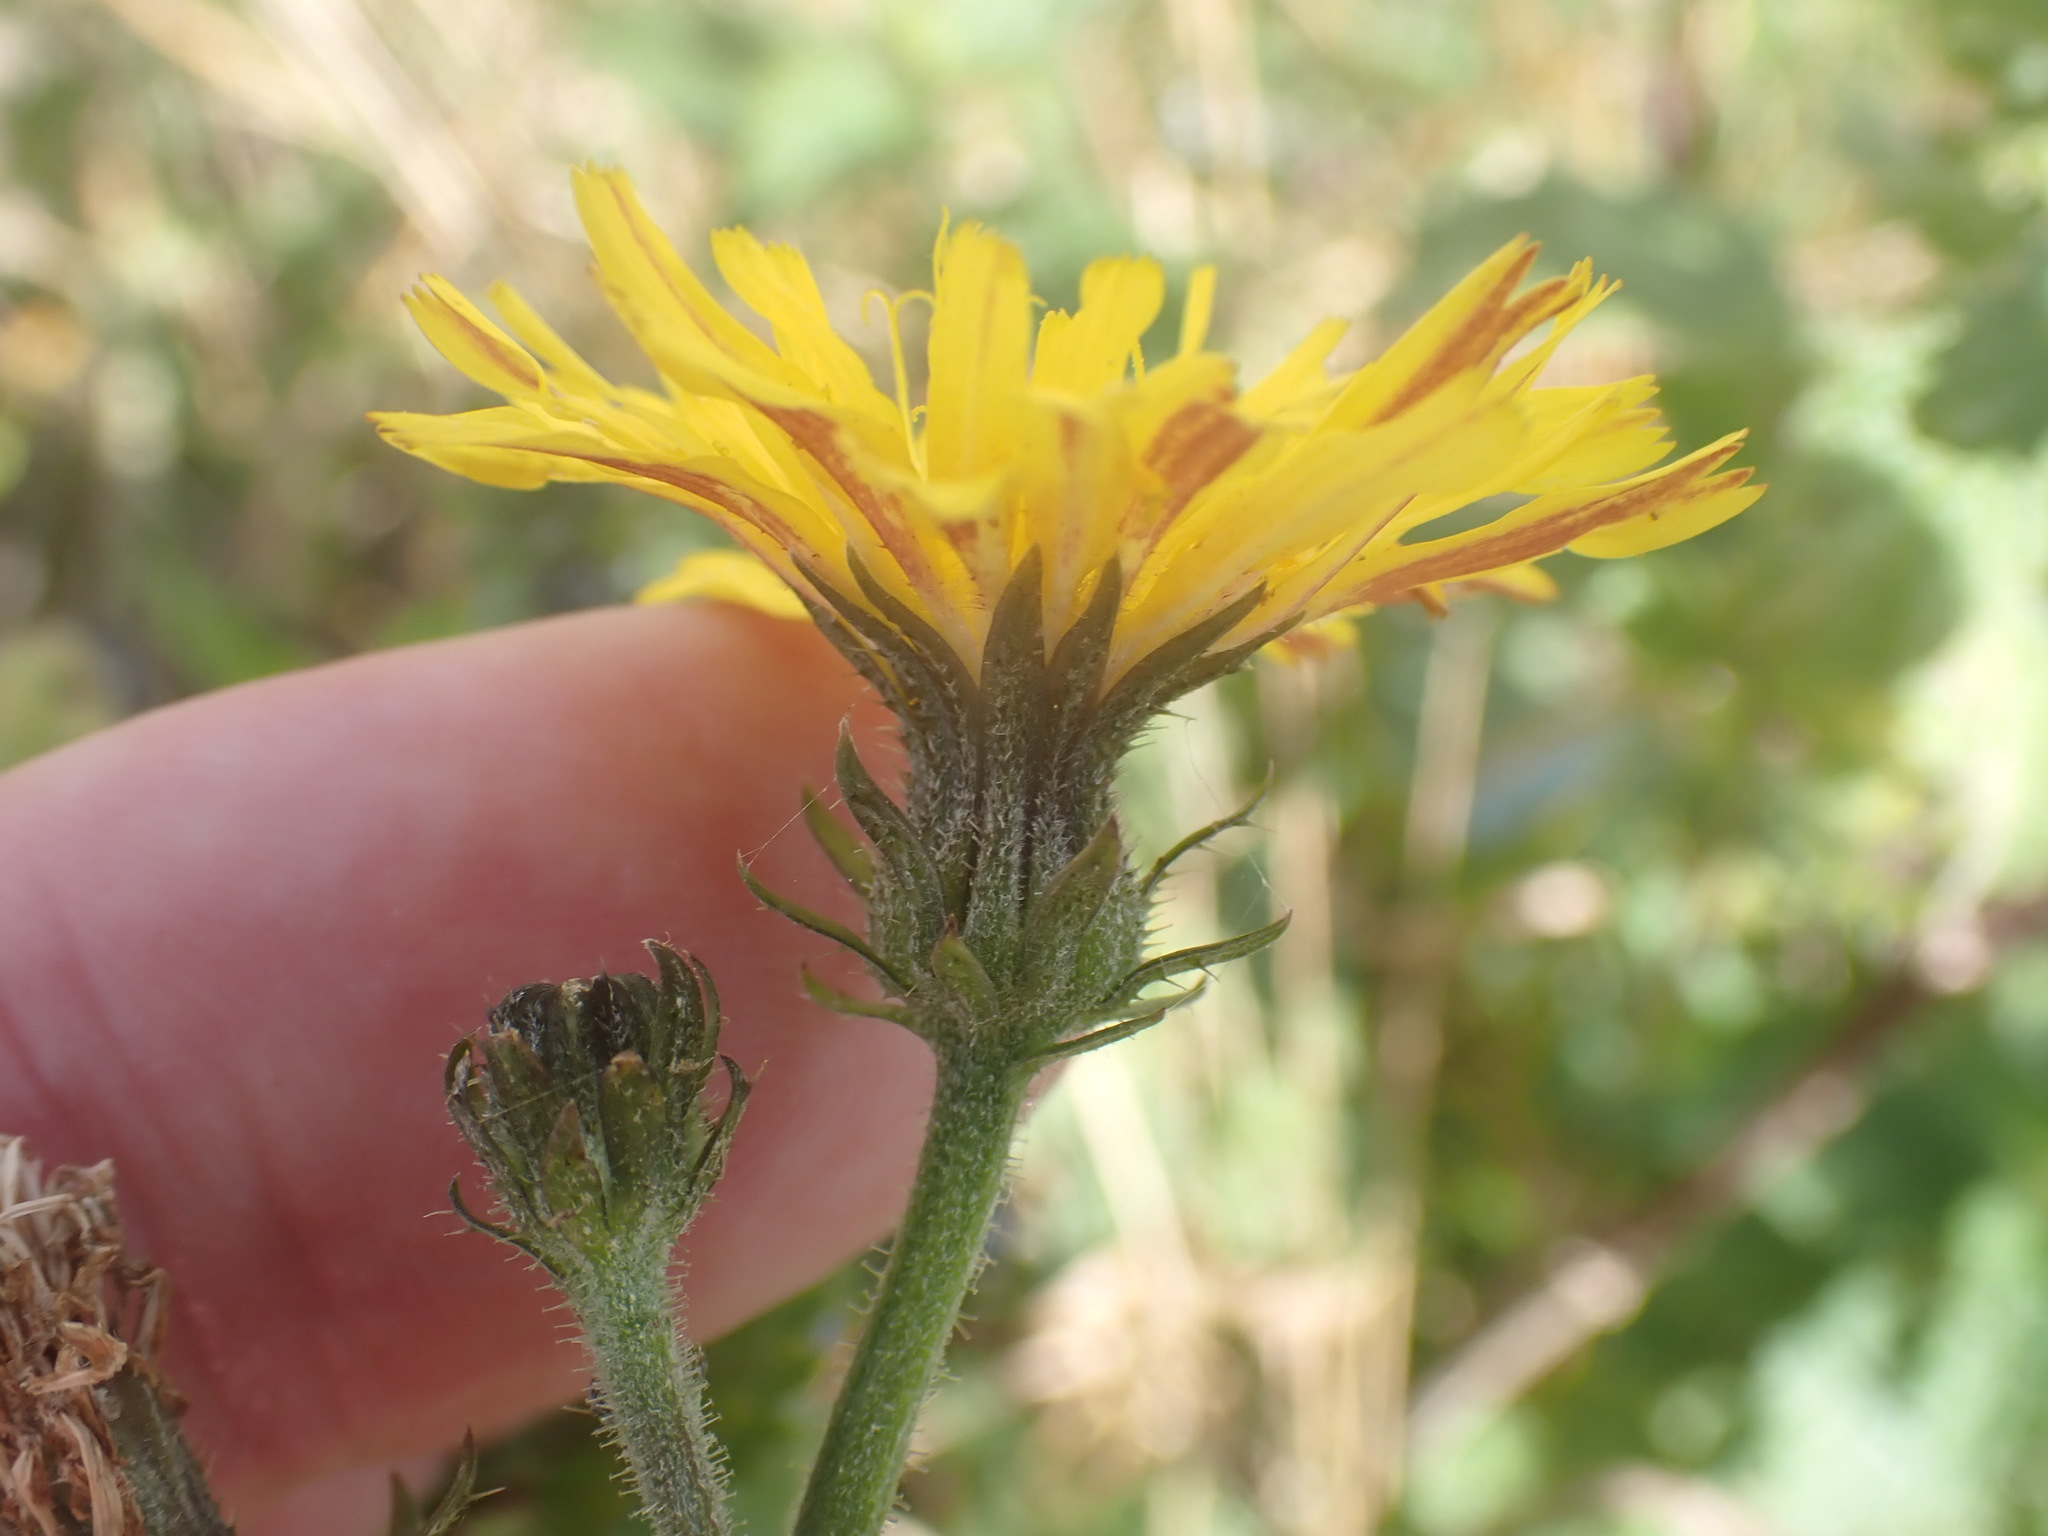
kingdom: Plantae
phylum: Tracheophyta
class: Magnoliopsida
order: Asterales
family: Asteraceae
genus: Picris
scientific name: Picris hieracioides
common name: Hawkweed oxtongue
